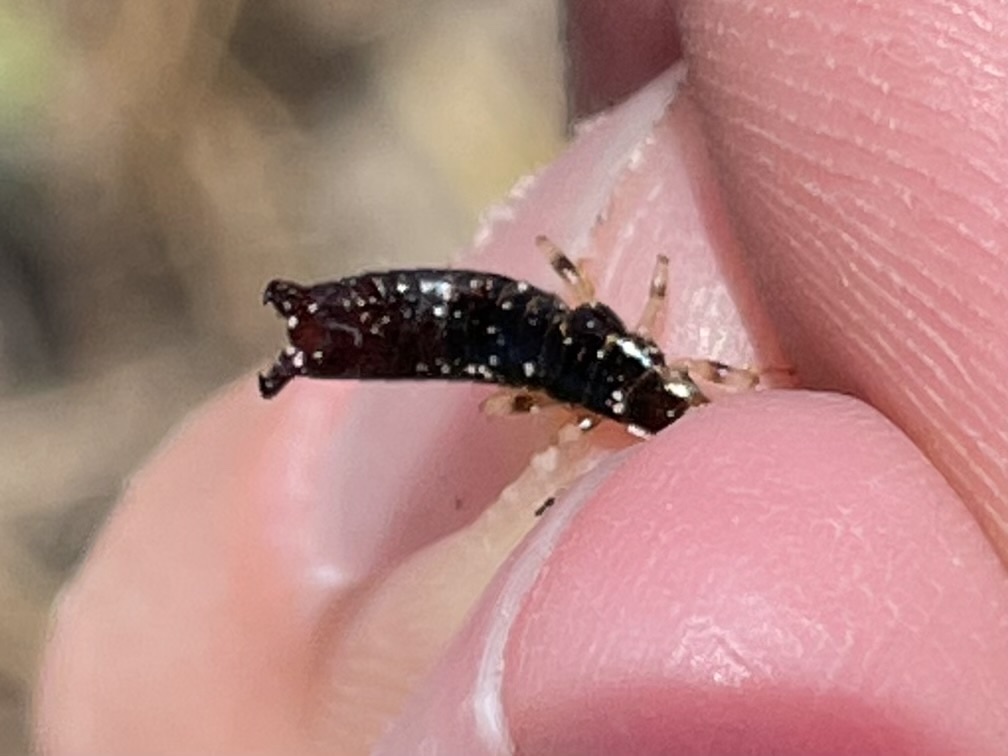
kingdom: Animalia
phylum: Arthropoda
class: Insecta
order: Dermaptera
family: Anisolabididae
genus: Euborellia
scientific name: Euborellia annulipes
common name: Ringlegged earwig
